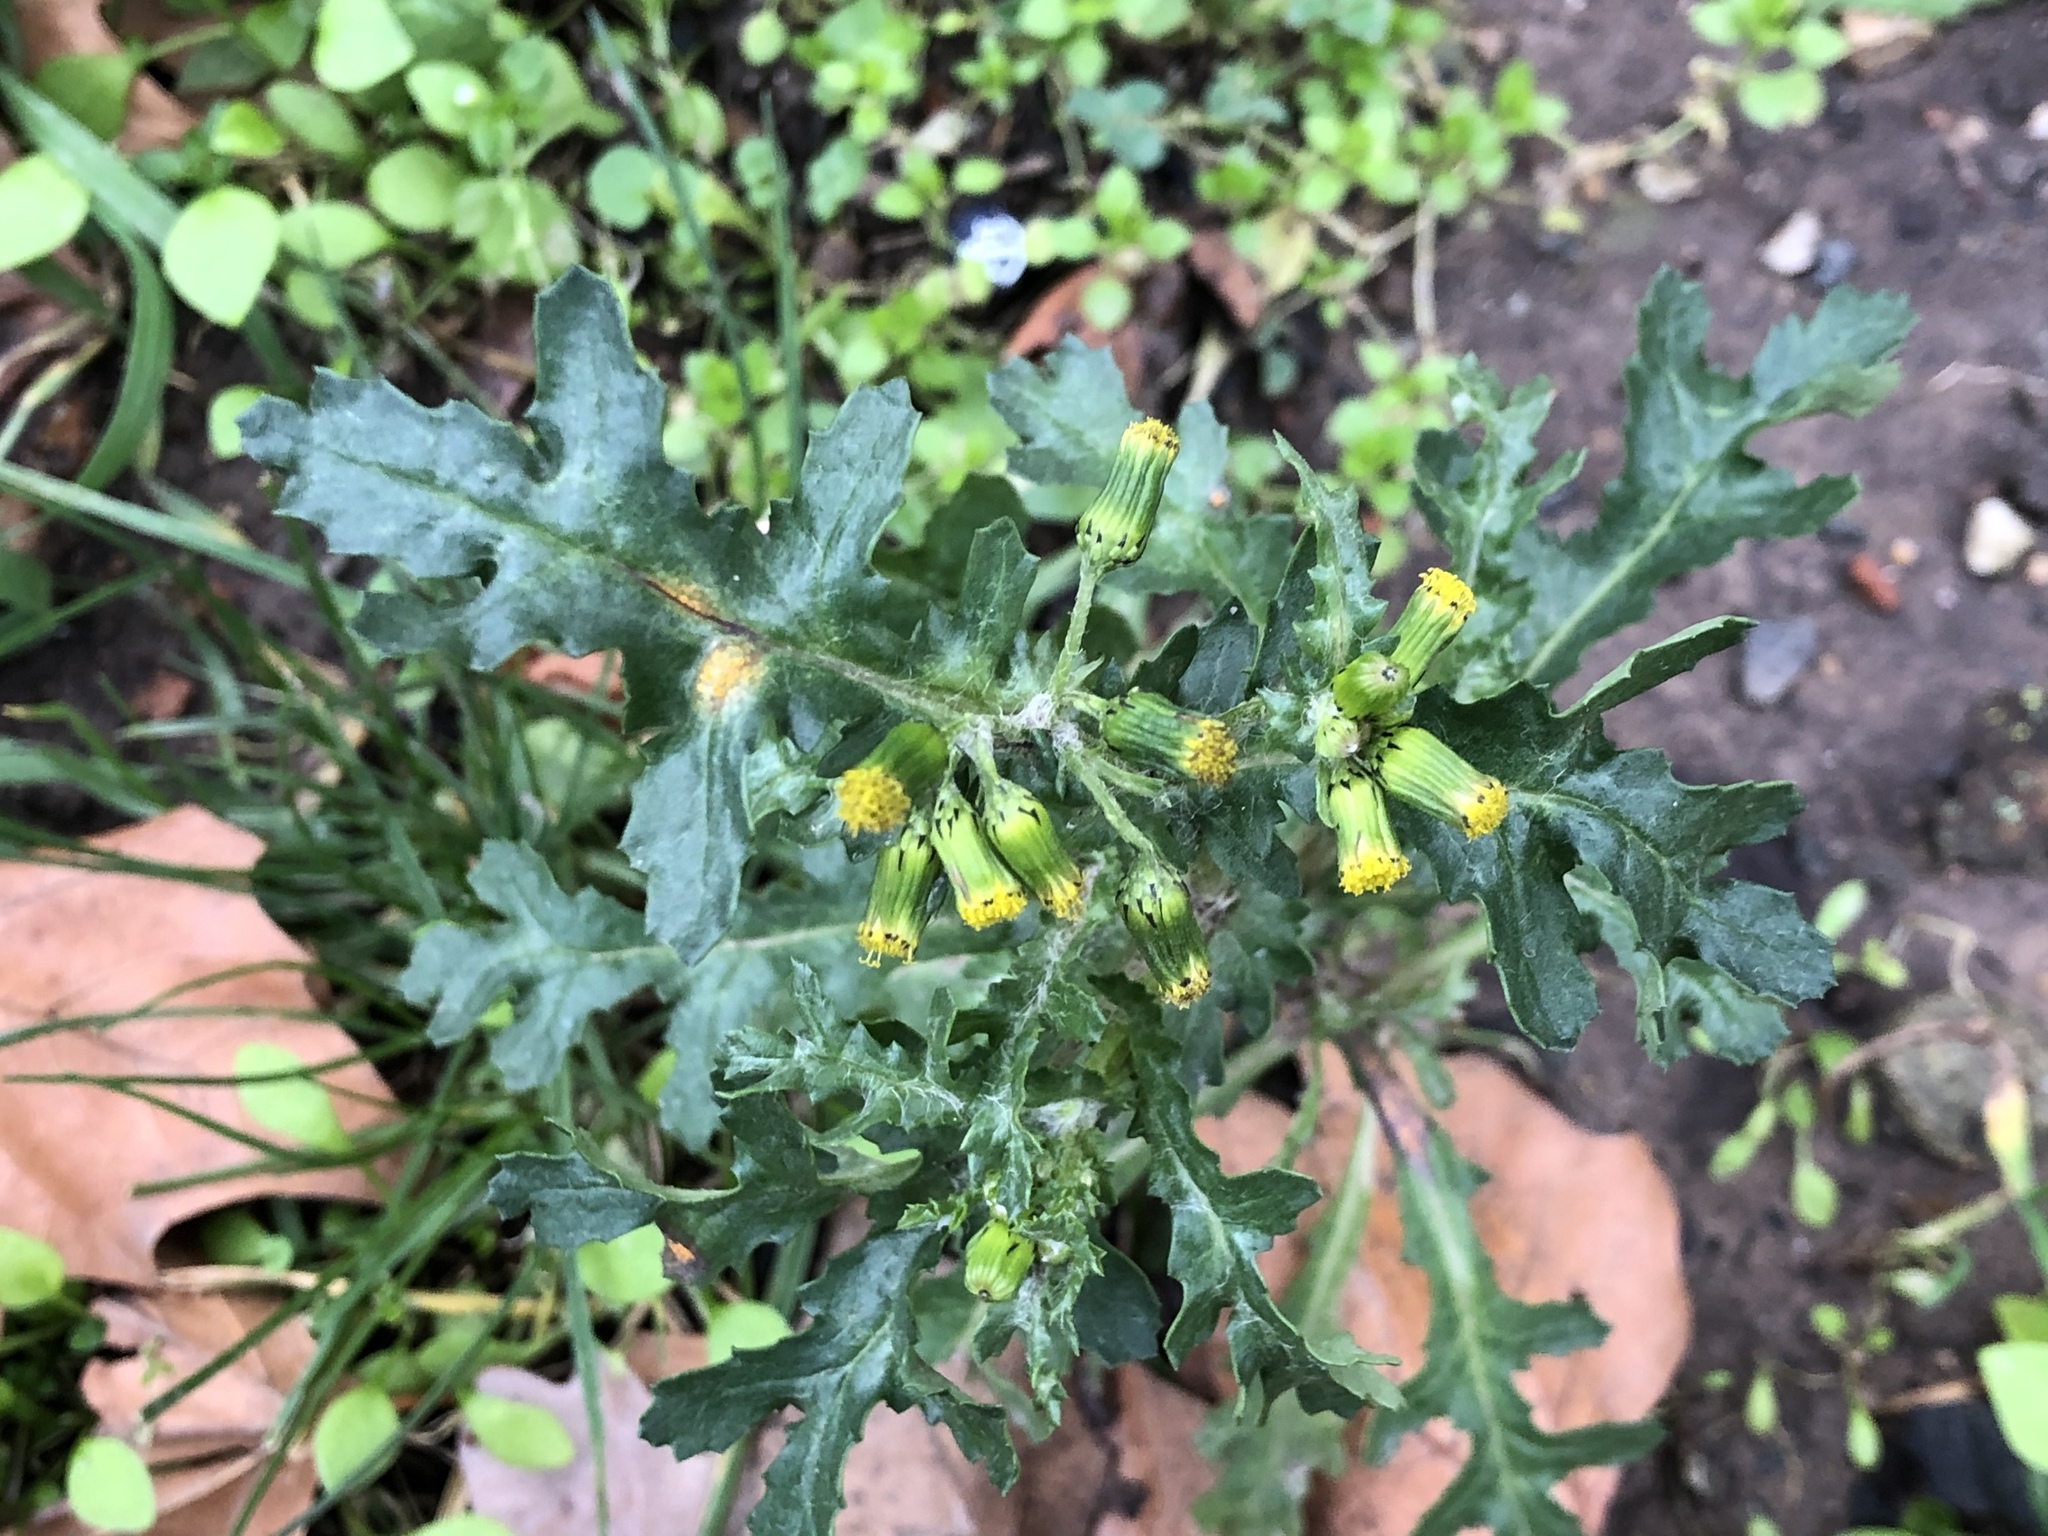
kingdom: Plantae
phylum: Tracheophyta
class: Magnoliopsida
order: Asterales
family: Asteraceae
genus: Senecio
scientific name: Senecio vulgaris
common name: Old-man-in-the-spring
